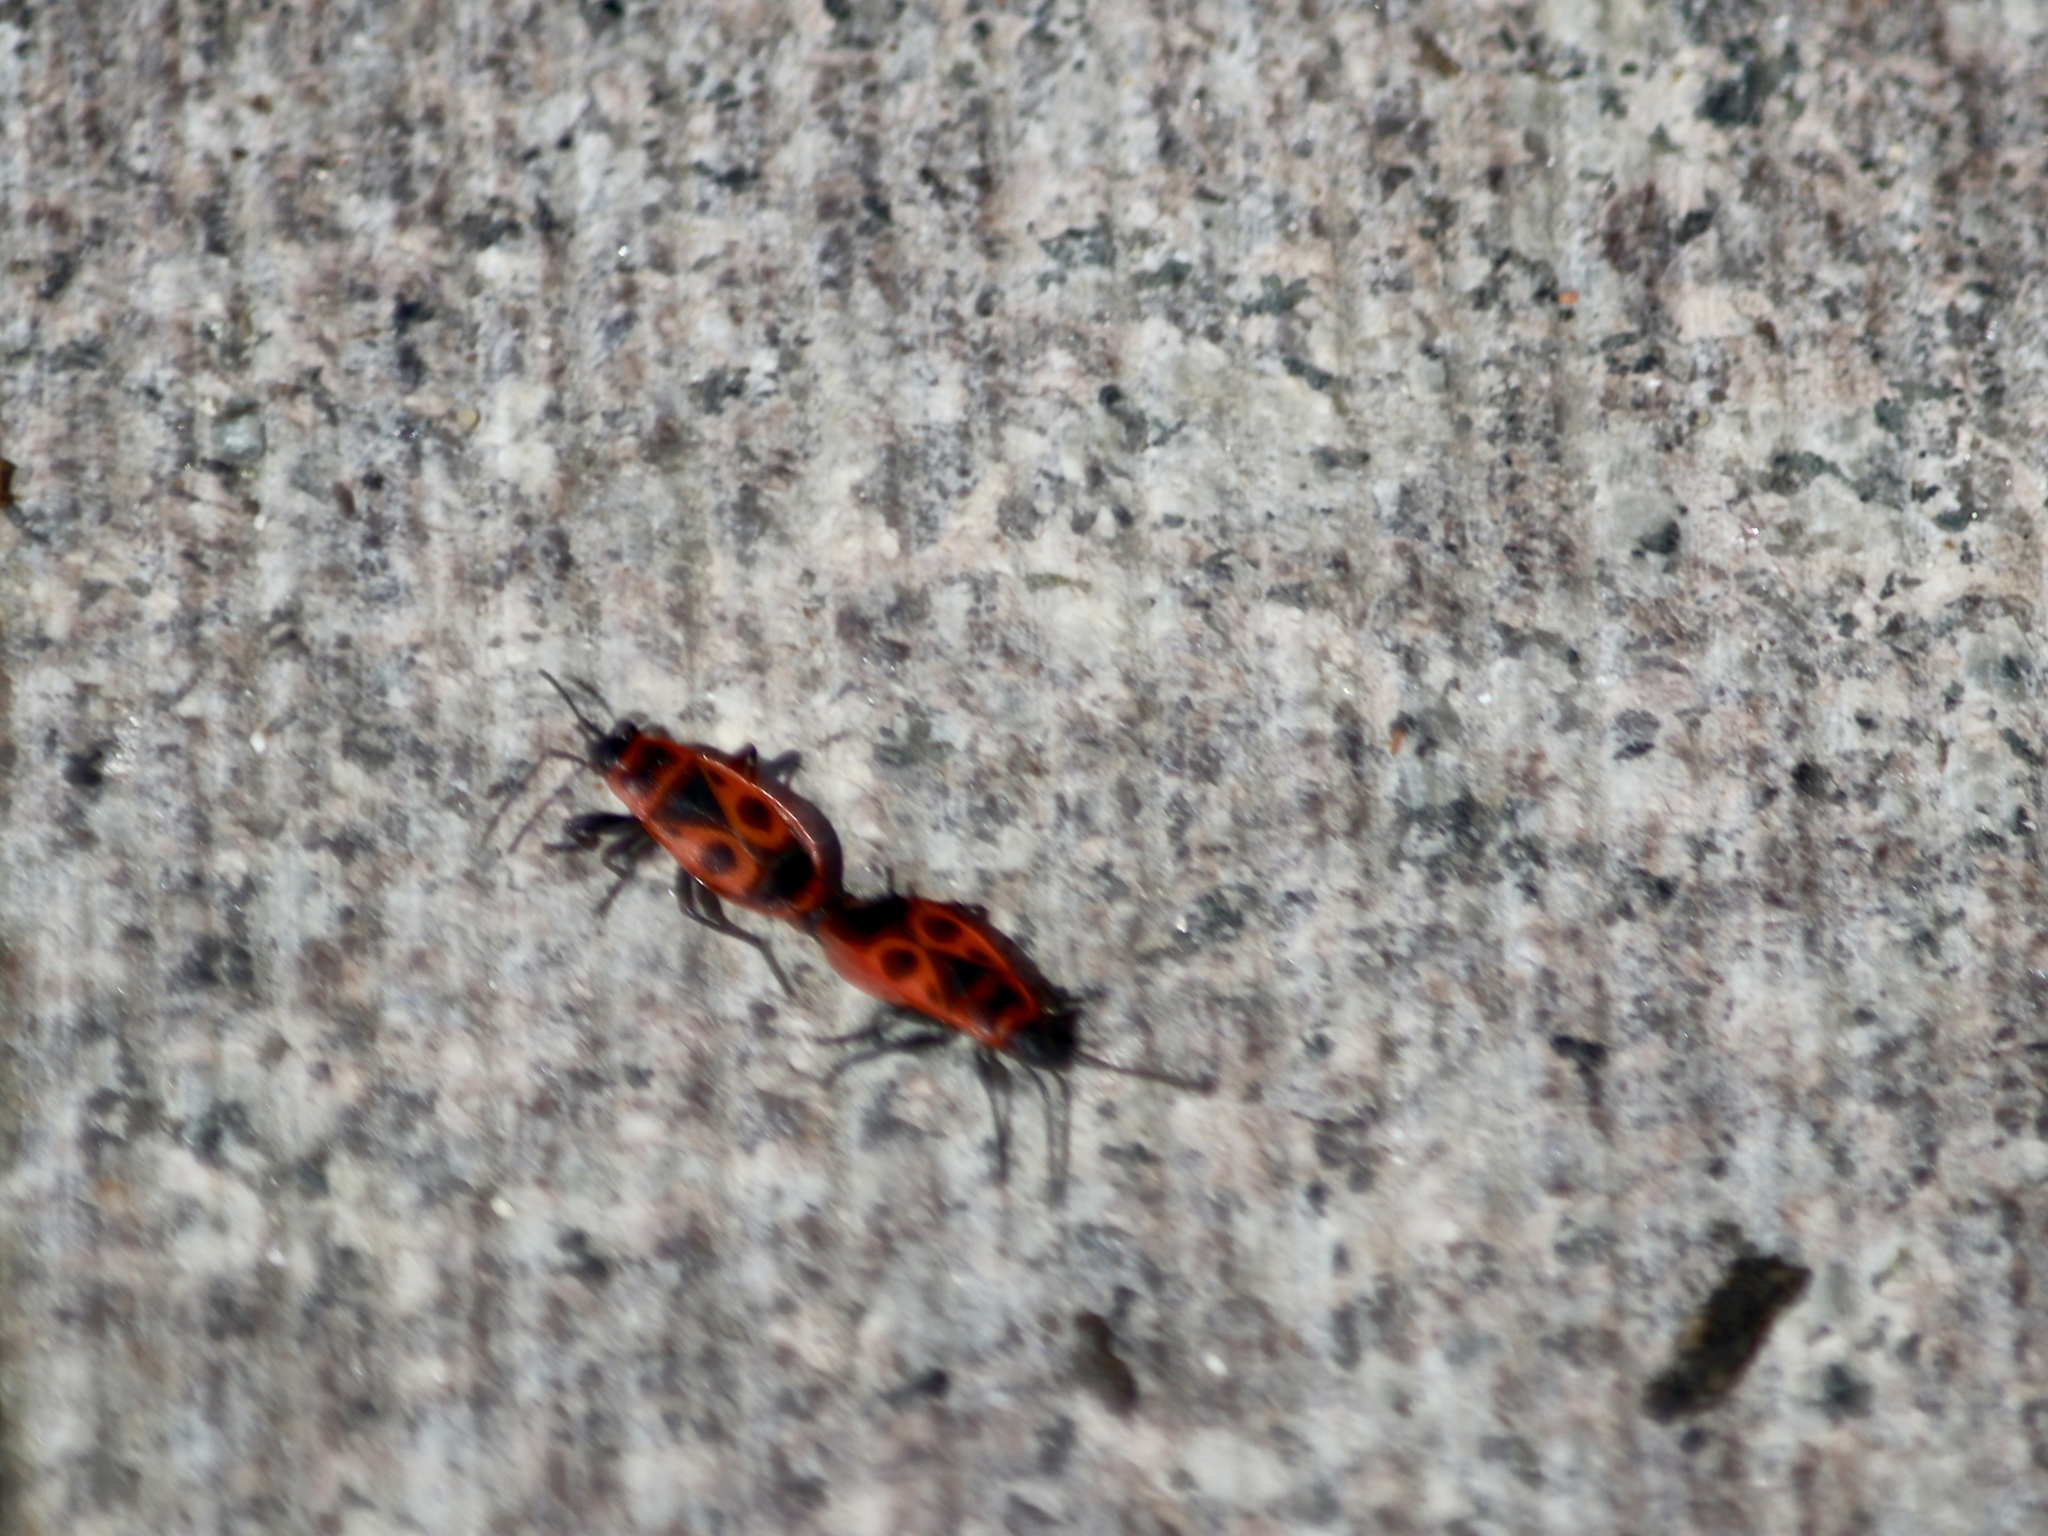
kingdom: Animalia
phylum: Arthropoda
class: Insecta
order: Hemiptera
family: Pyrrhocoridae
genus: Pyrrhocoris
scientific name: Pyrrhocoris apterus
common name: Firebug
